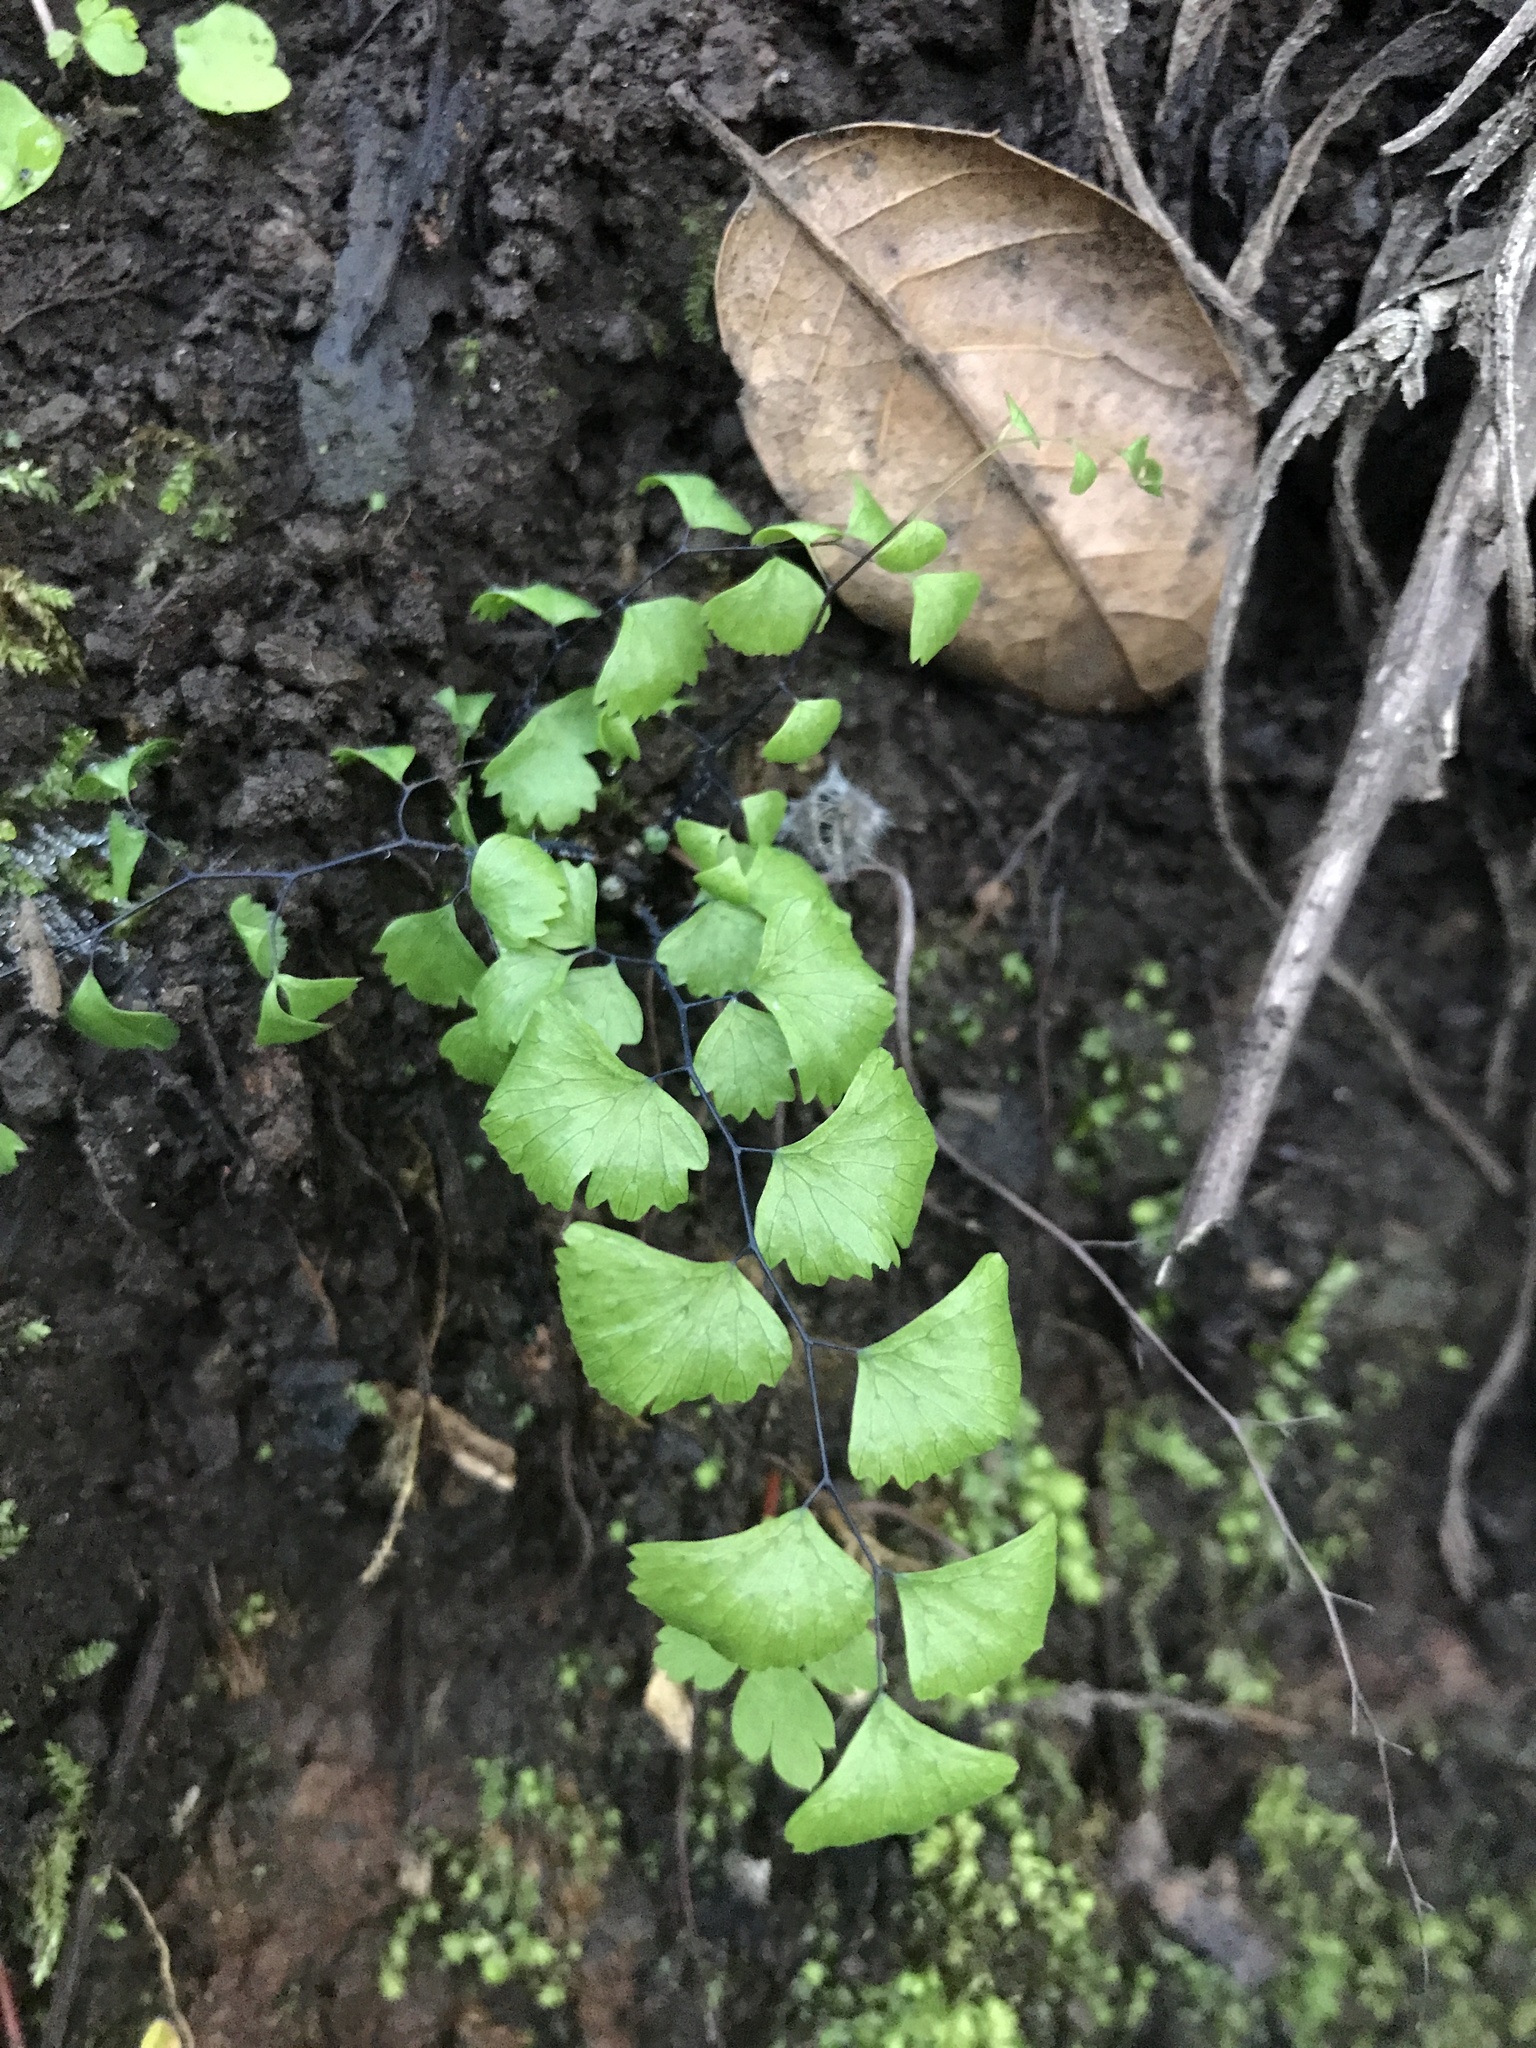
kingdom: Plantae
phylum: Tracheophyta
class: Polypodiopsida
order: Polypodiales
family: Pteridaceae
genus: Adiantum
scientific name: Adiantum jordanii
